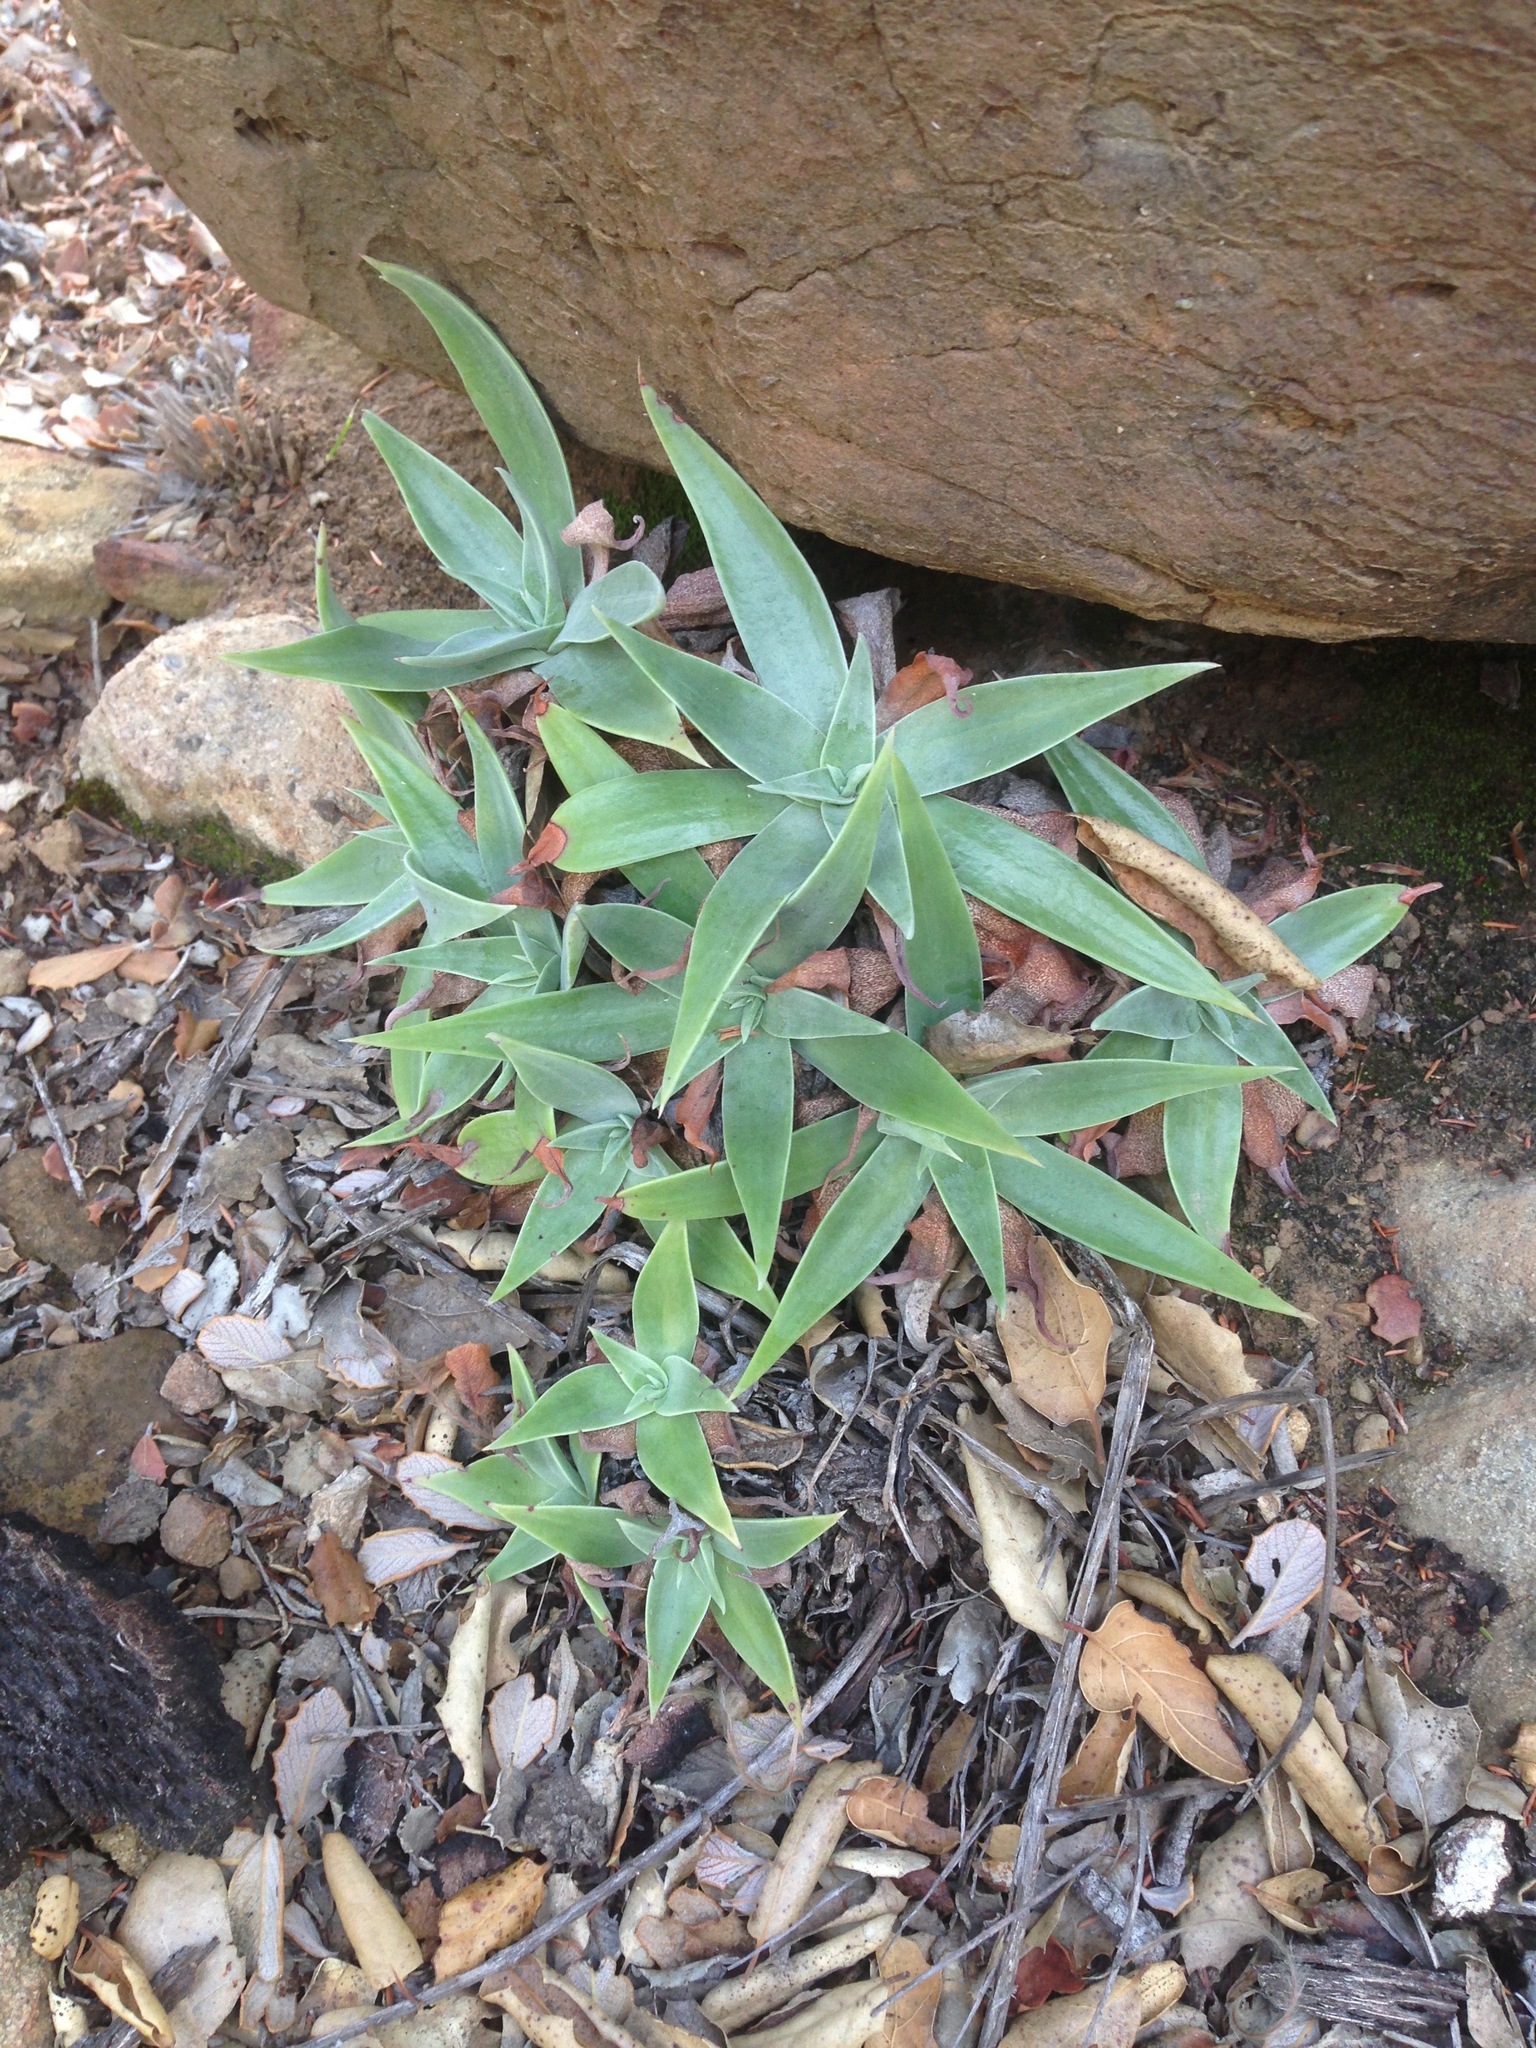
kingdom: Plantae
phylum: Tracheophyta
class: Magnoliopsida
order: Saxifragales
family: Crassulaceae
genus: Dudleya
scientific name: Dudleya lanceolata
